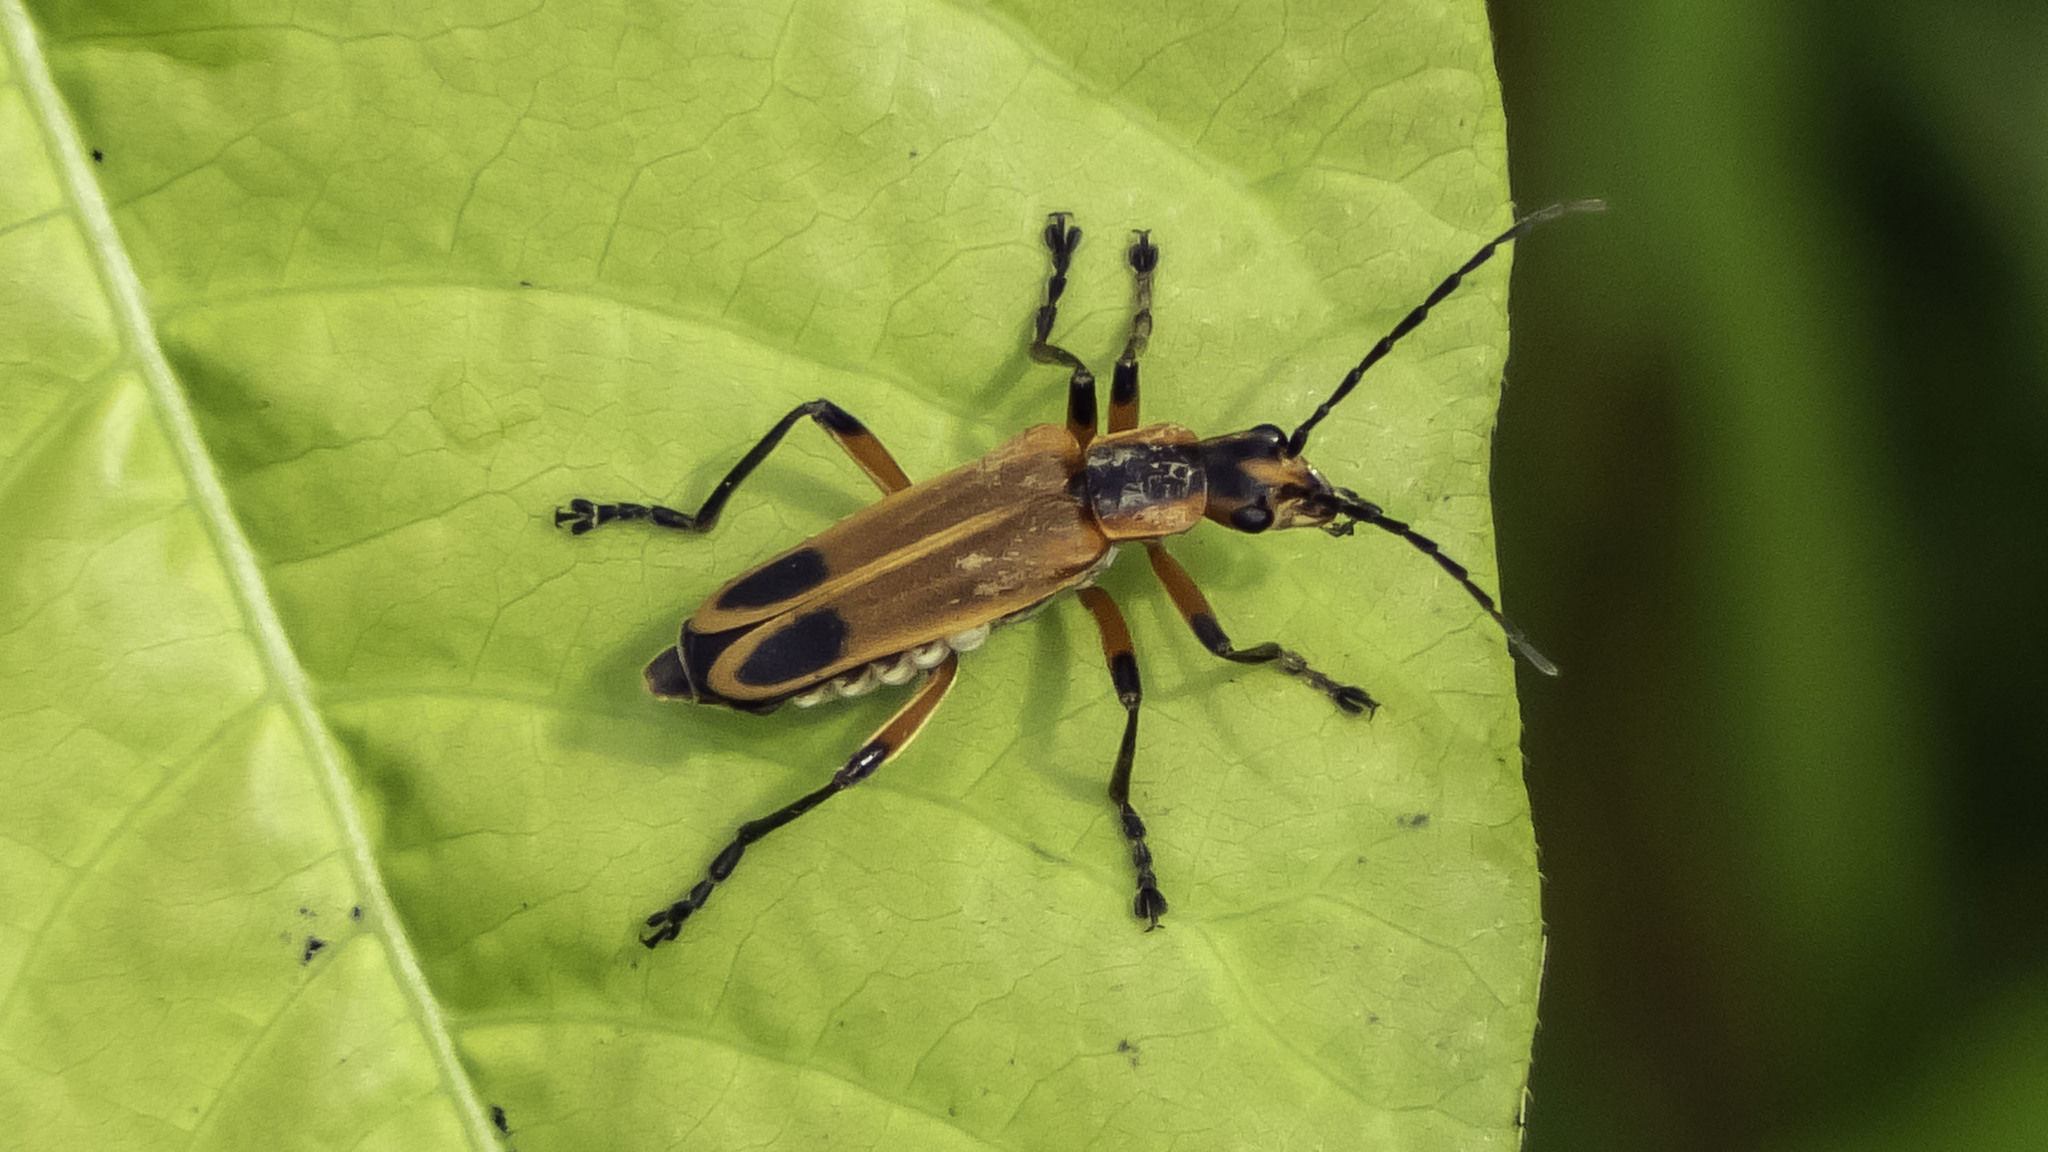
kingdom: Animalia
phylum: Arthropoda
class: Insecta
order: Coleoptera
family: Cantharidae
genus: Chauliognathus
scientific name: Chauliognathus marginatus
